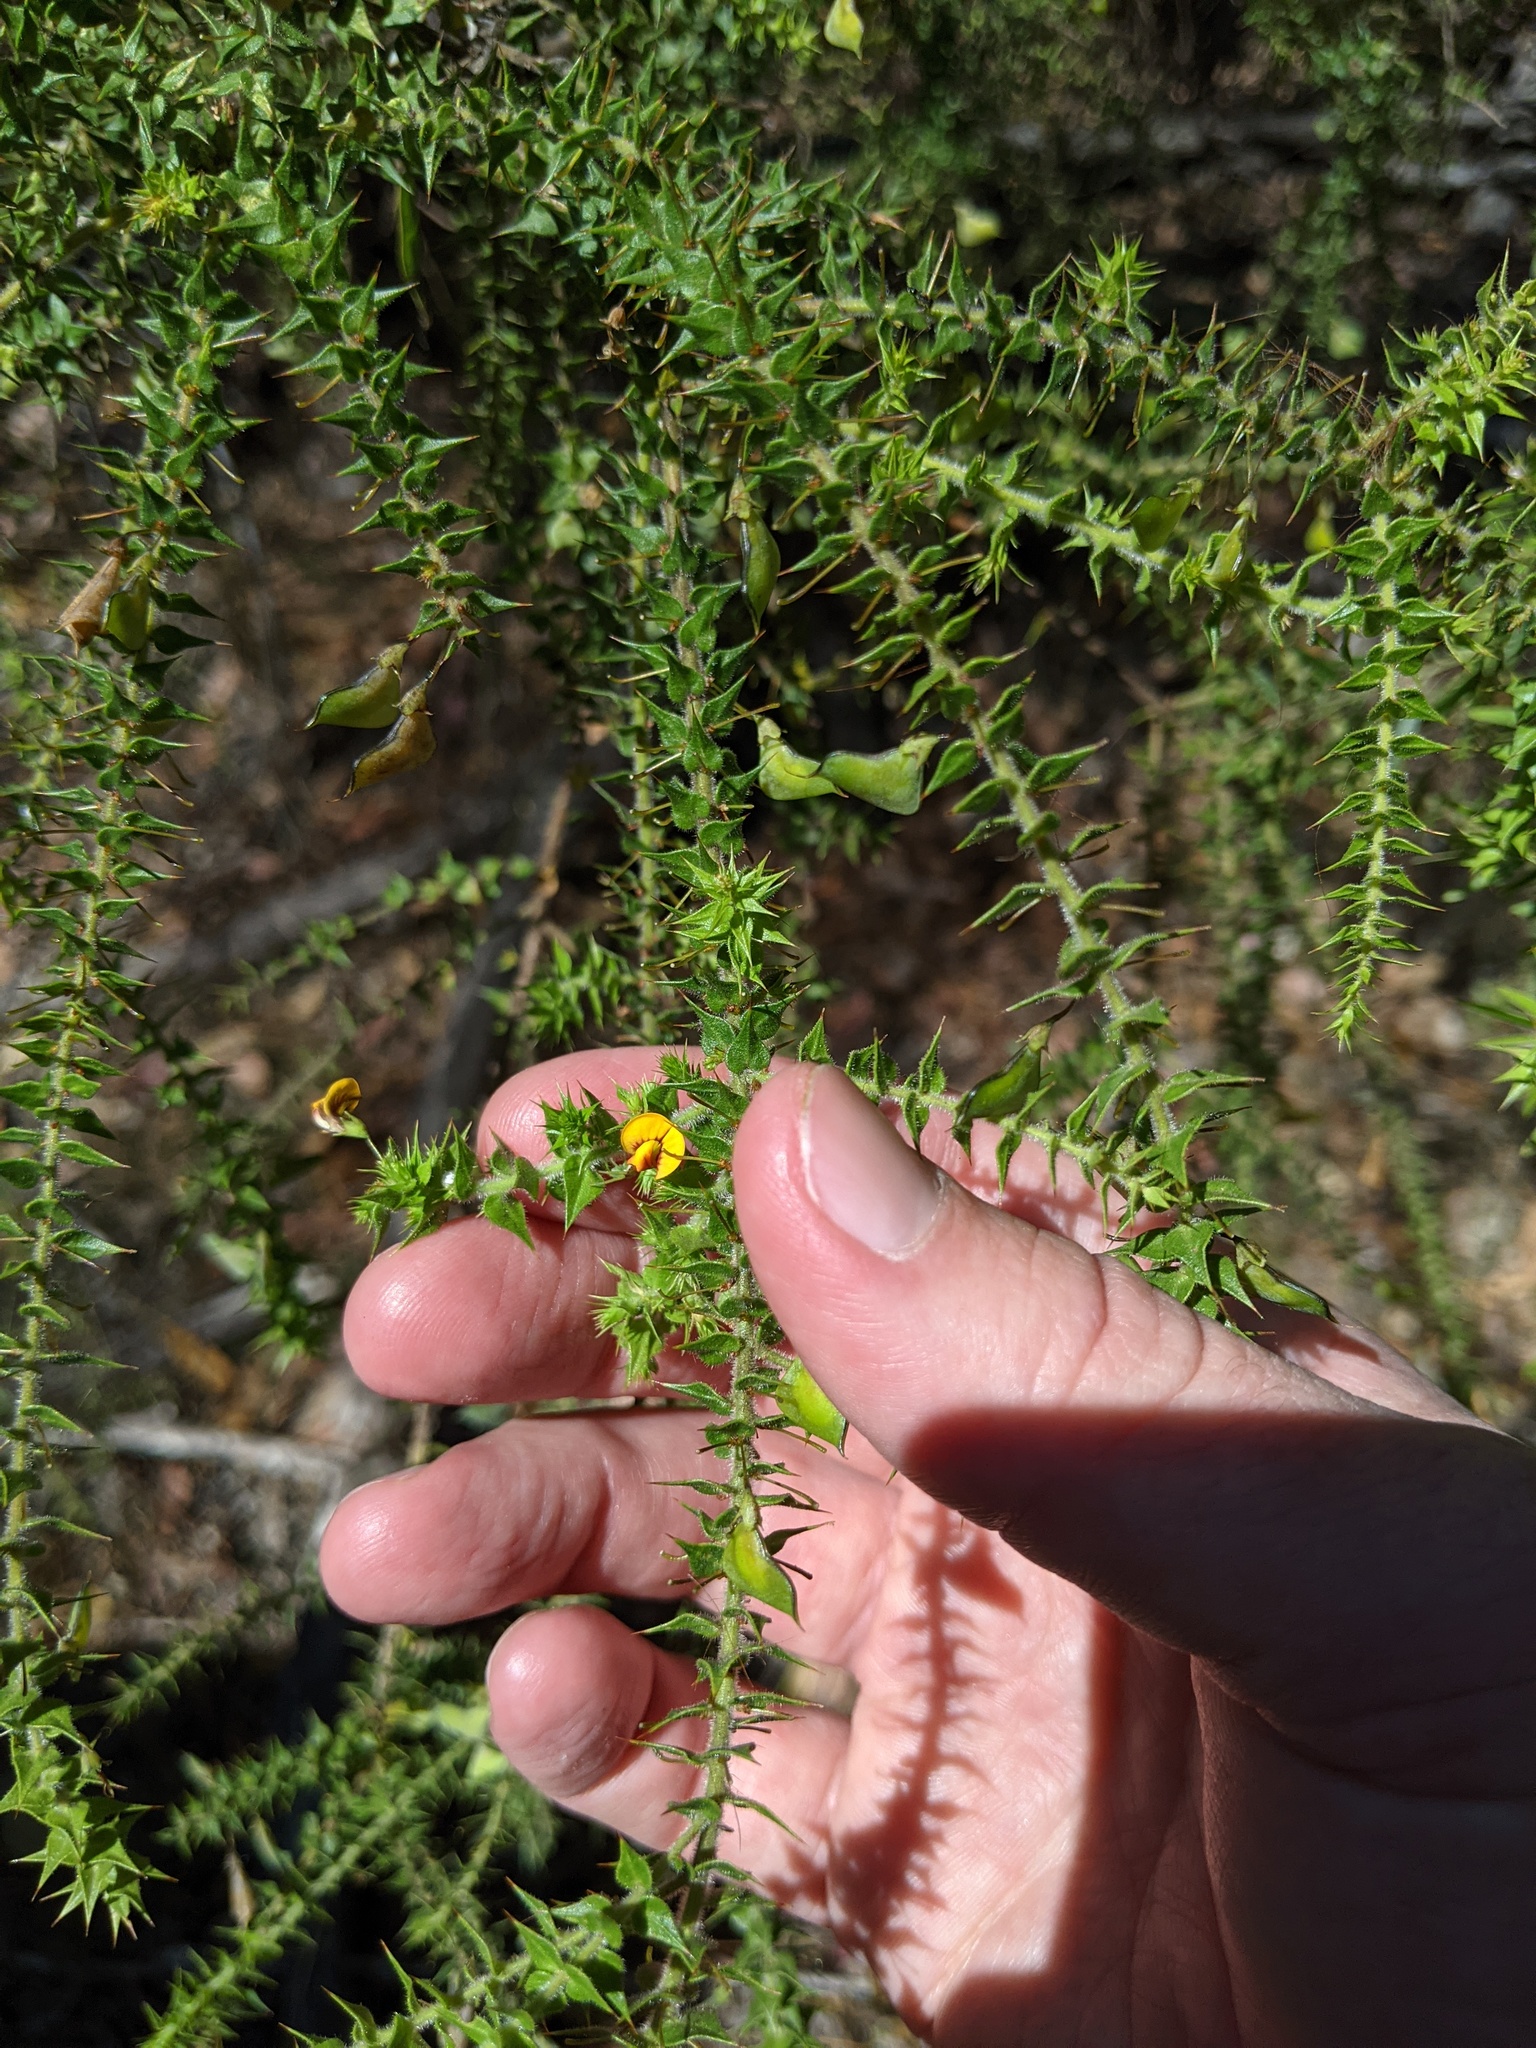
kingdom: Plantae
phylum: Tracheophyta
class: Magnoliopsida
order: Fabales
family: Fabaceae
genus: Daviesia
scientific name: Daviesia villifera
